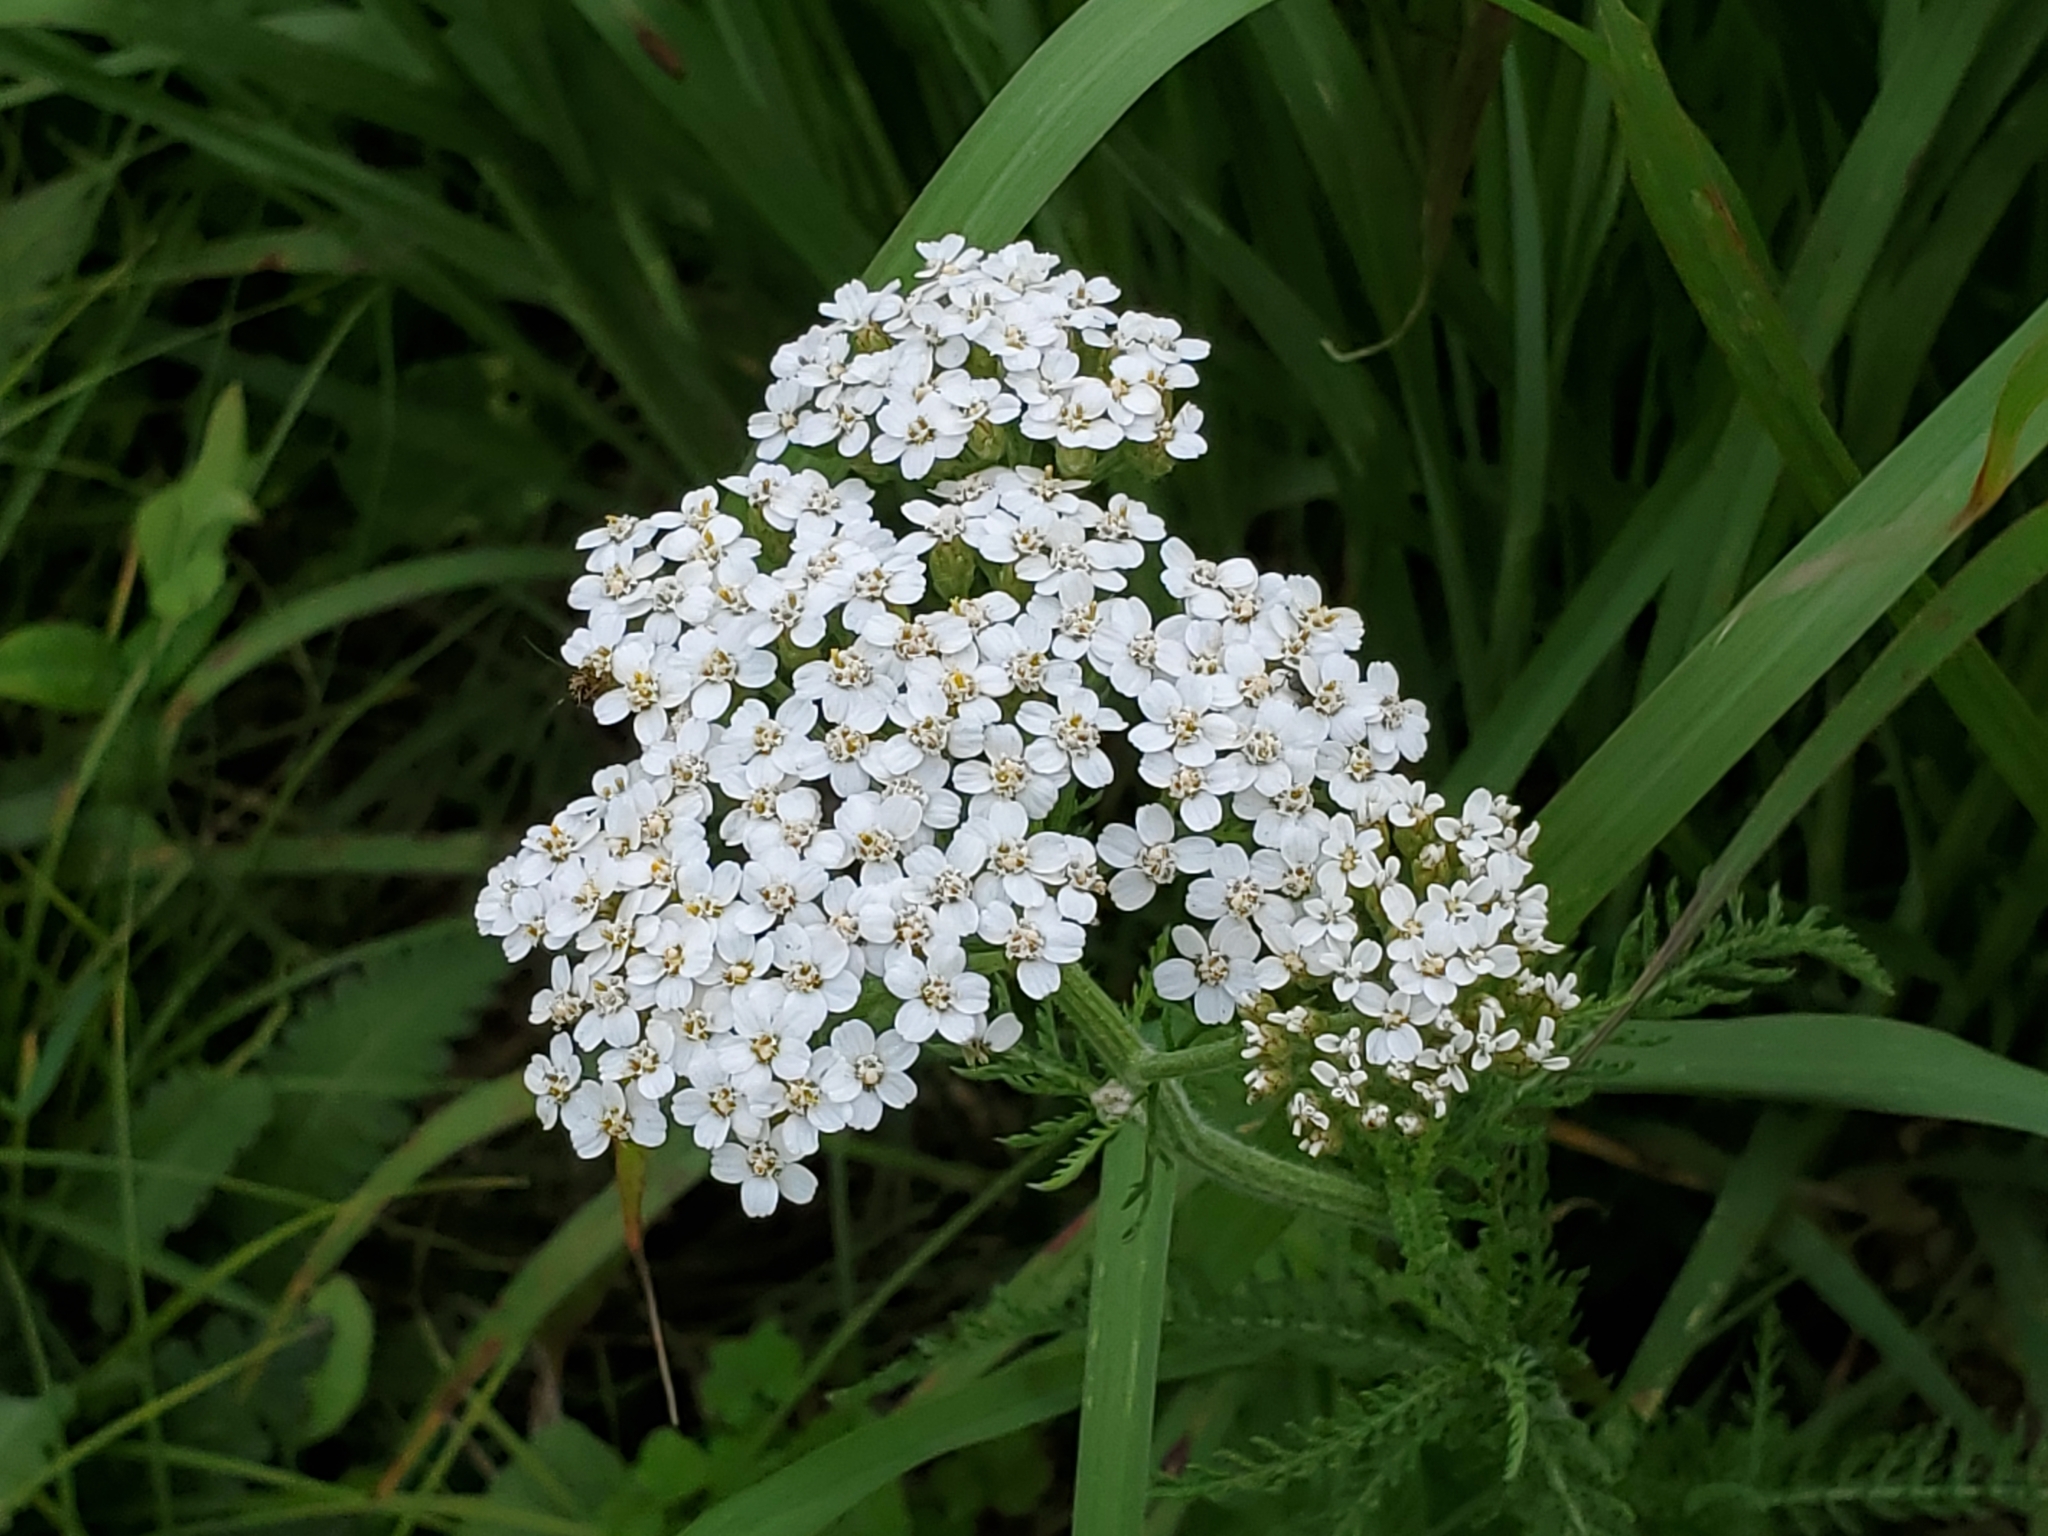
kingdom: Plantae
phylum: Tracheophyta
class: Magnoliopsida
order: Asterales
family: Asteraceae
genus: Achillea
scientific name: Achillea millefolium
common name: Yarrow
